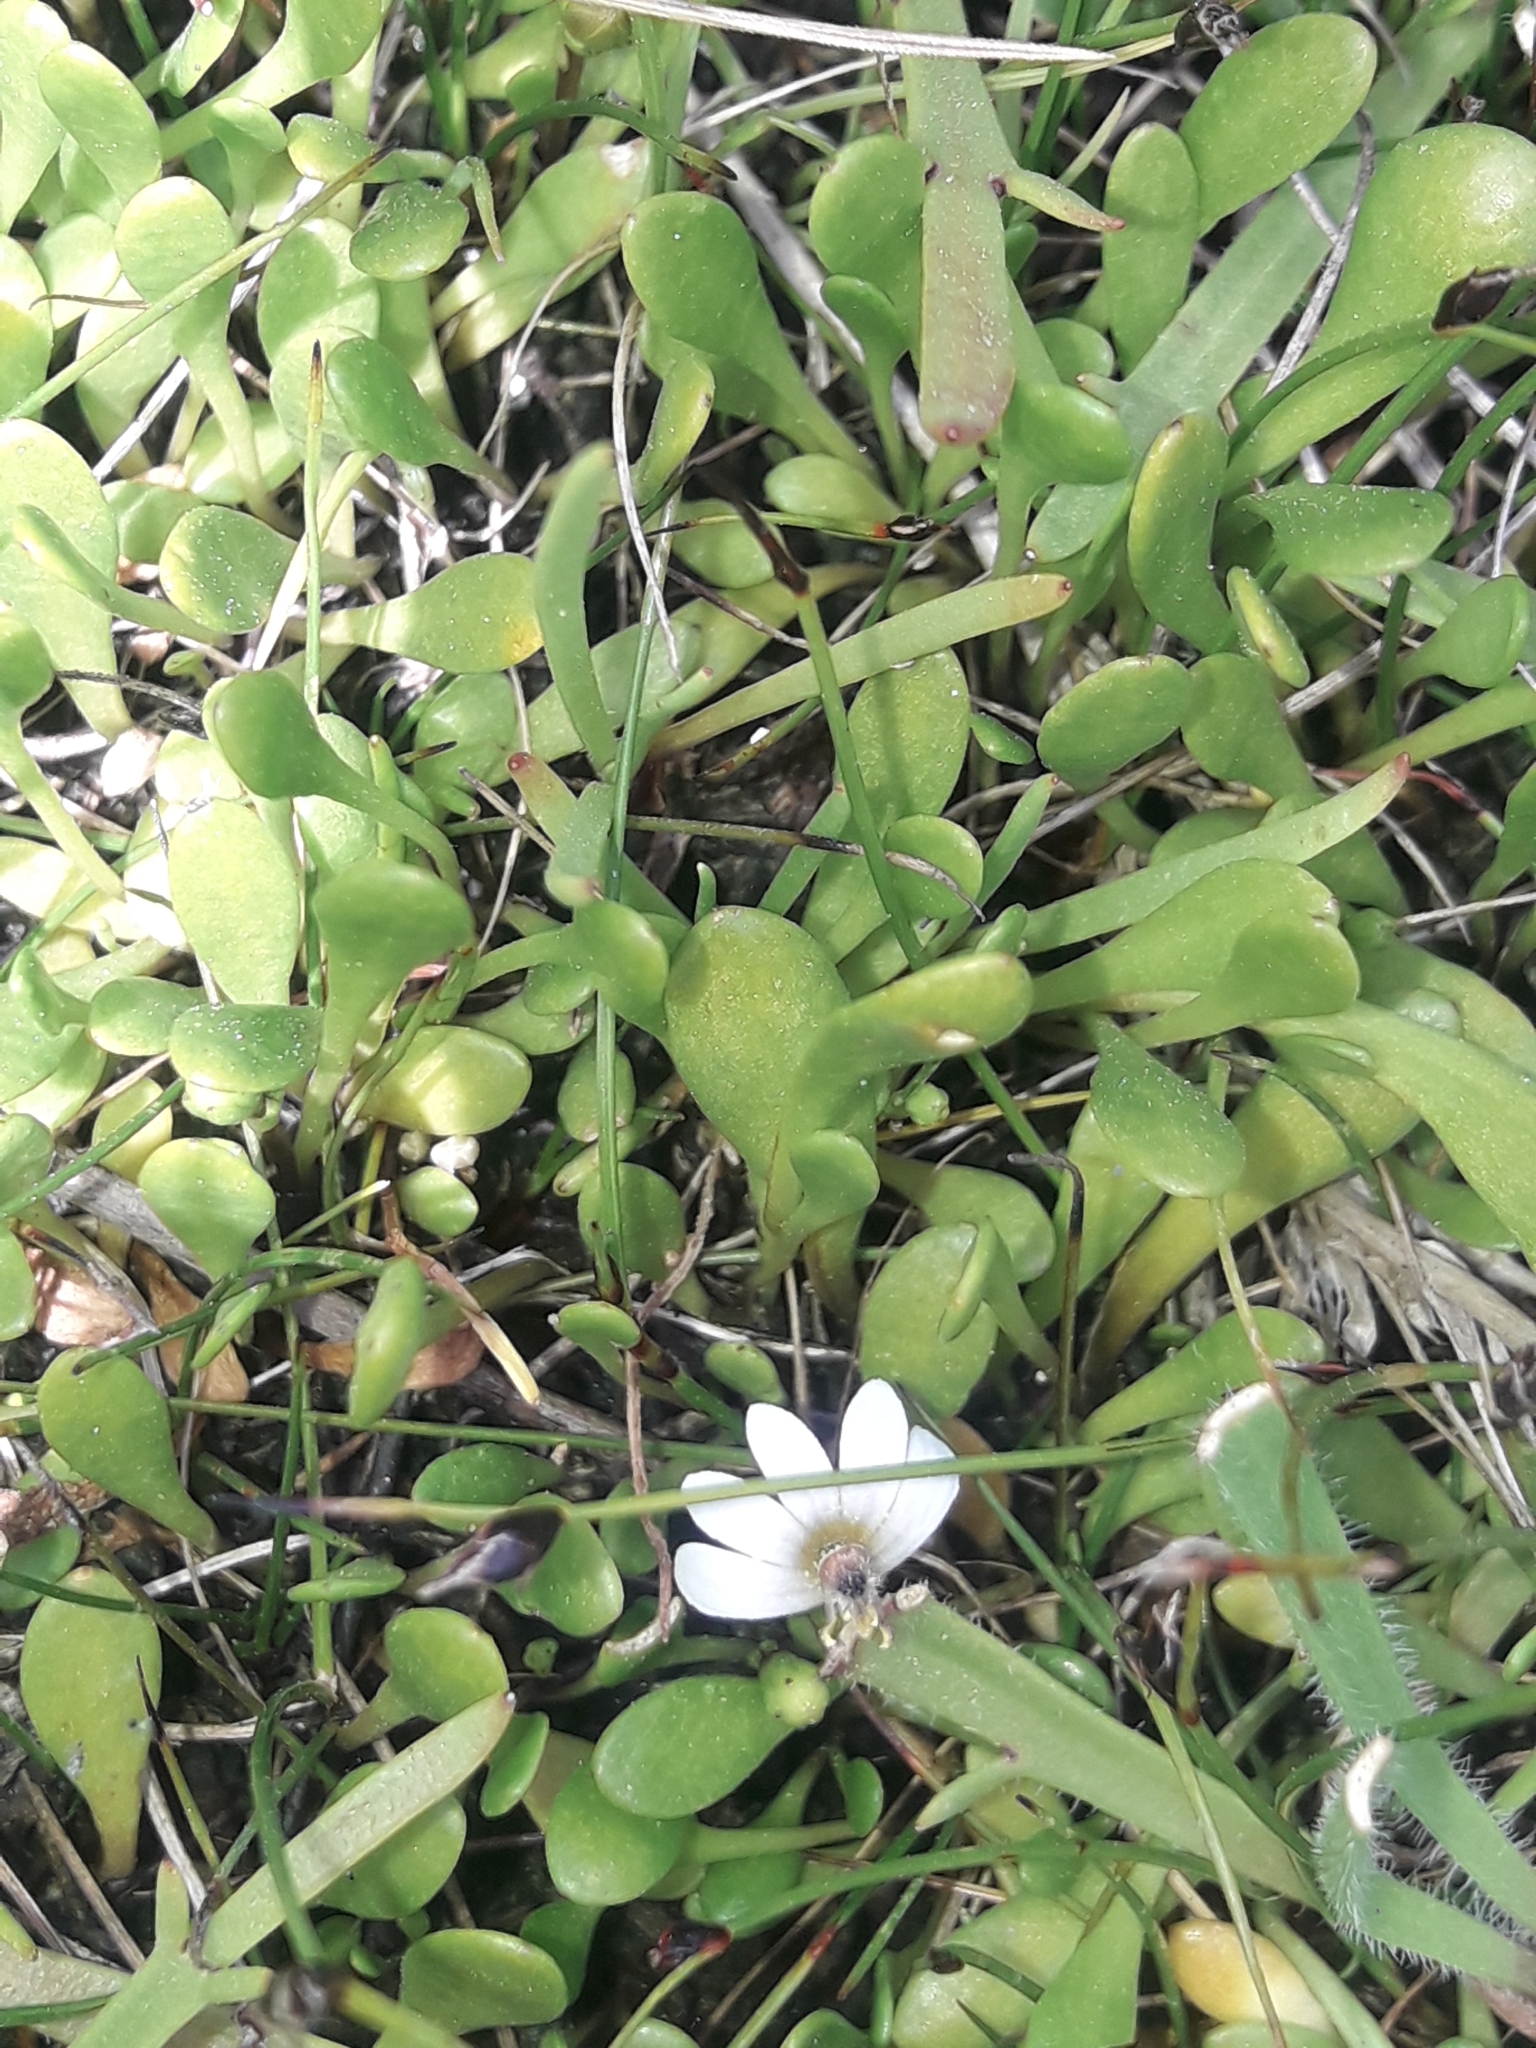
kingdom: Plantae
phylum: Tracheophyta
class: Magnoliopsida
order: Asterales
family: Goodeniaceae
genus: Goodenia
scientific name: Goodenia radicans
